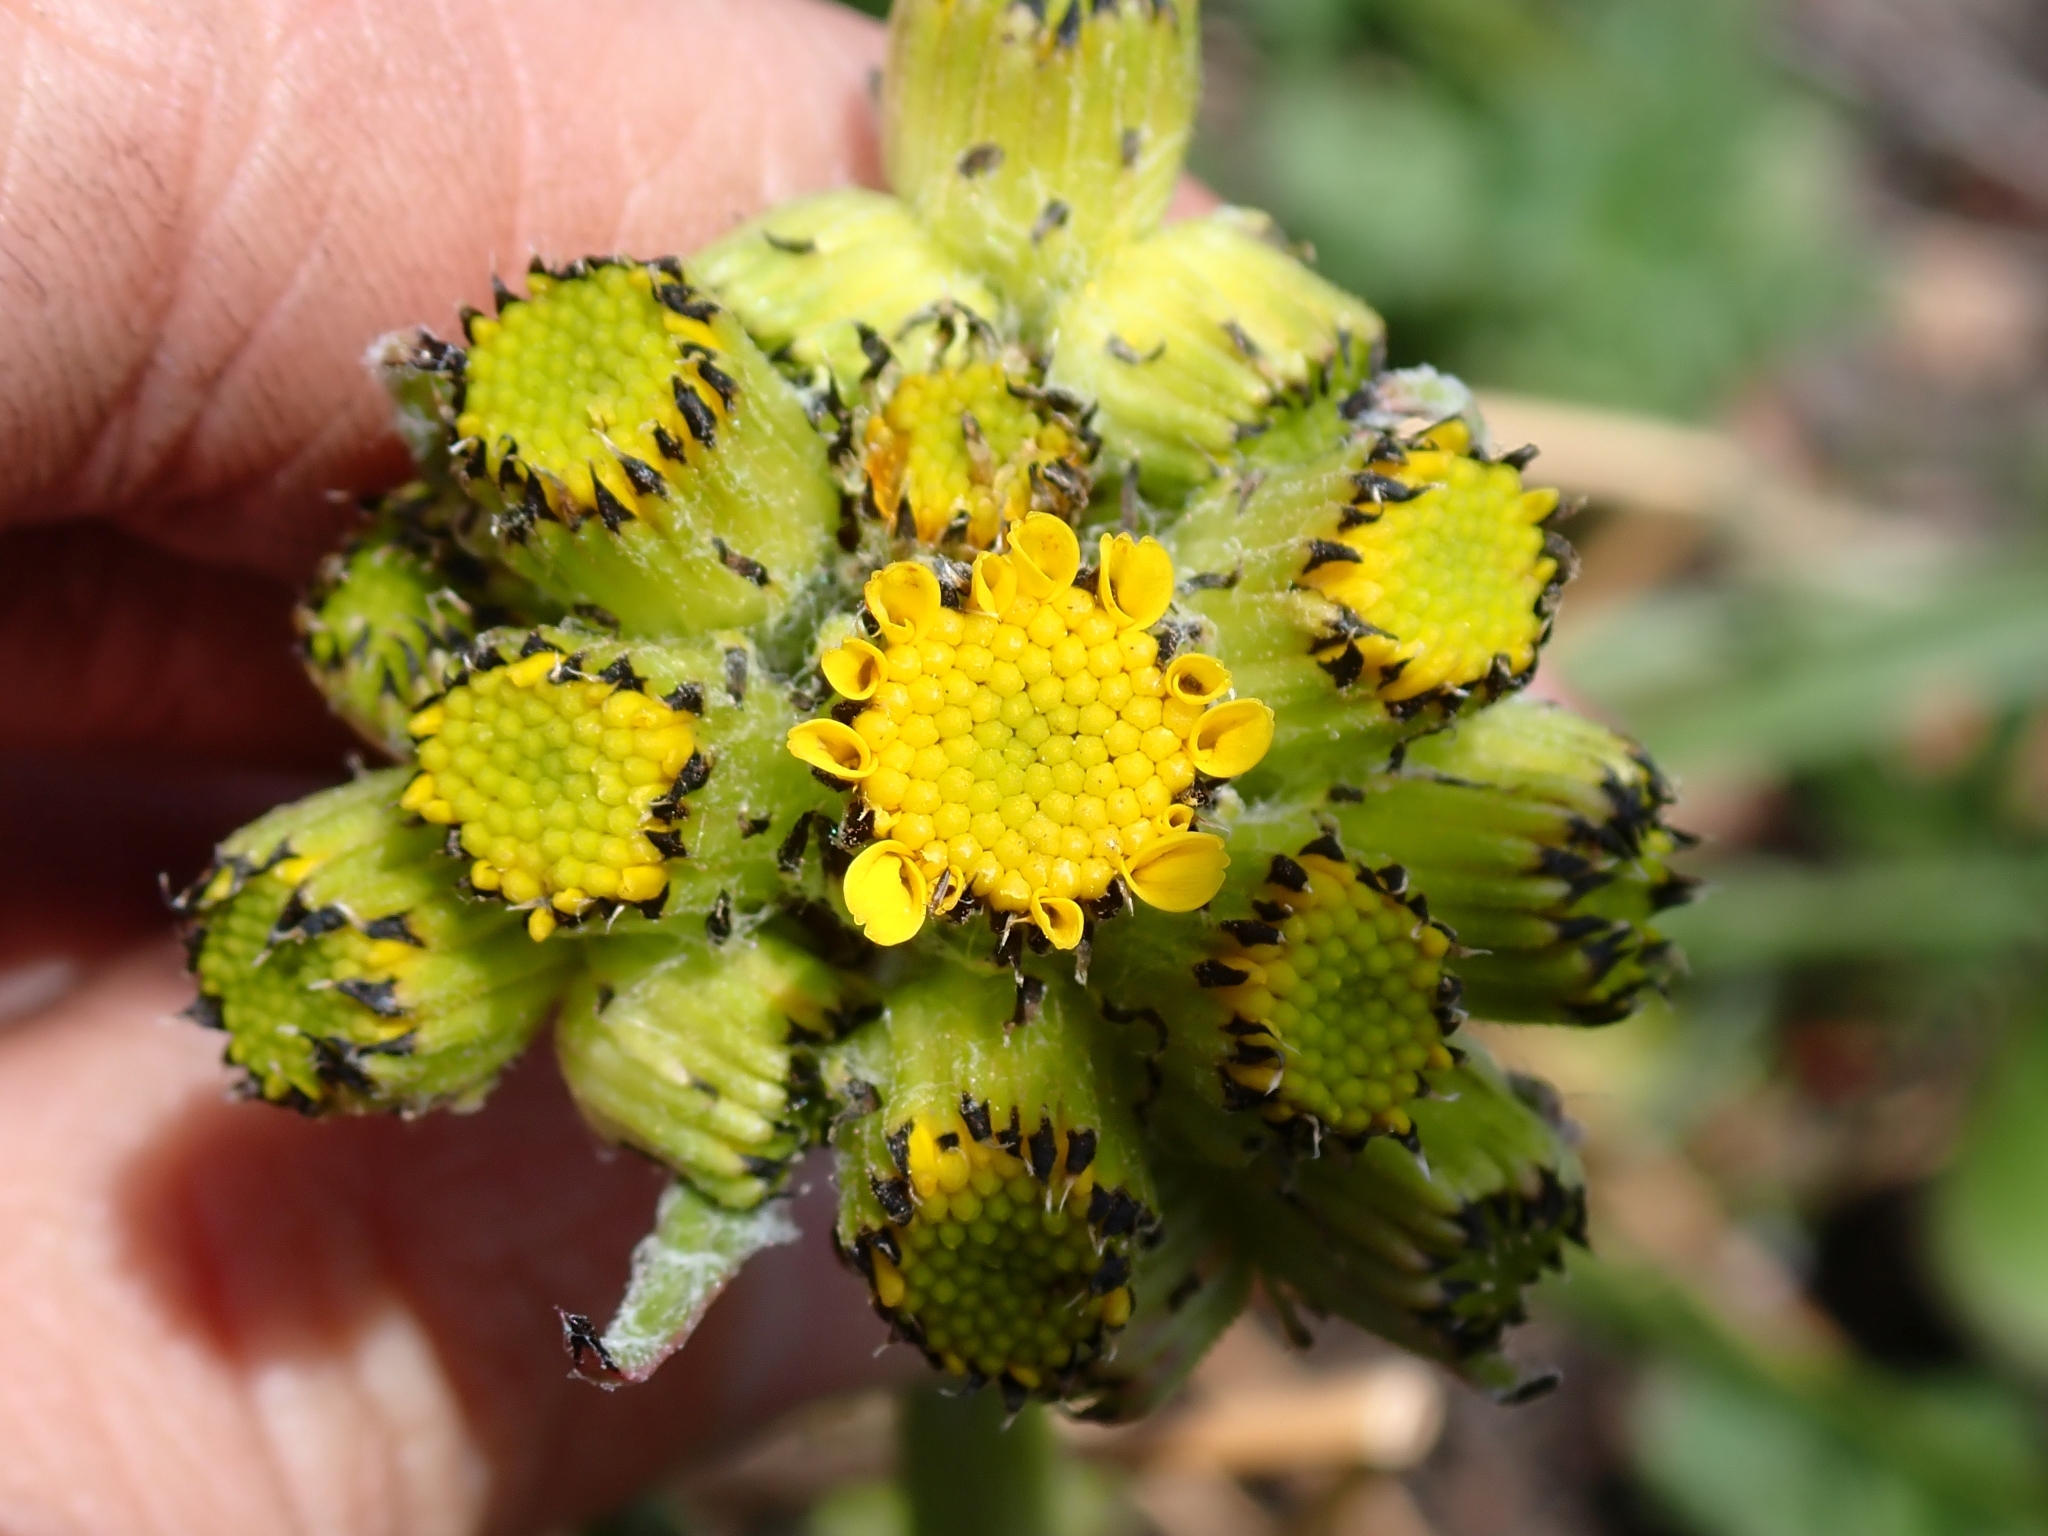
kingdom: Plantae
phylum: Tracheophyta
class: Magnoliopsida
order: Asterales
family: Asteraceae
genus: Senecio
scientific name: Senecio integerrimus
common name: Gaugeplant
